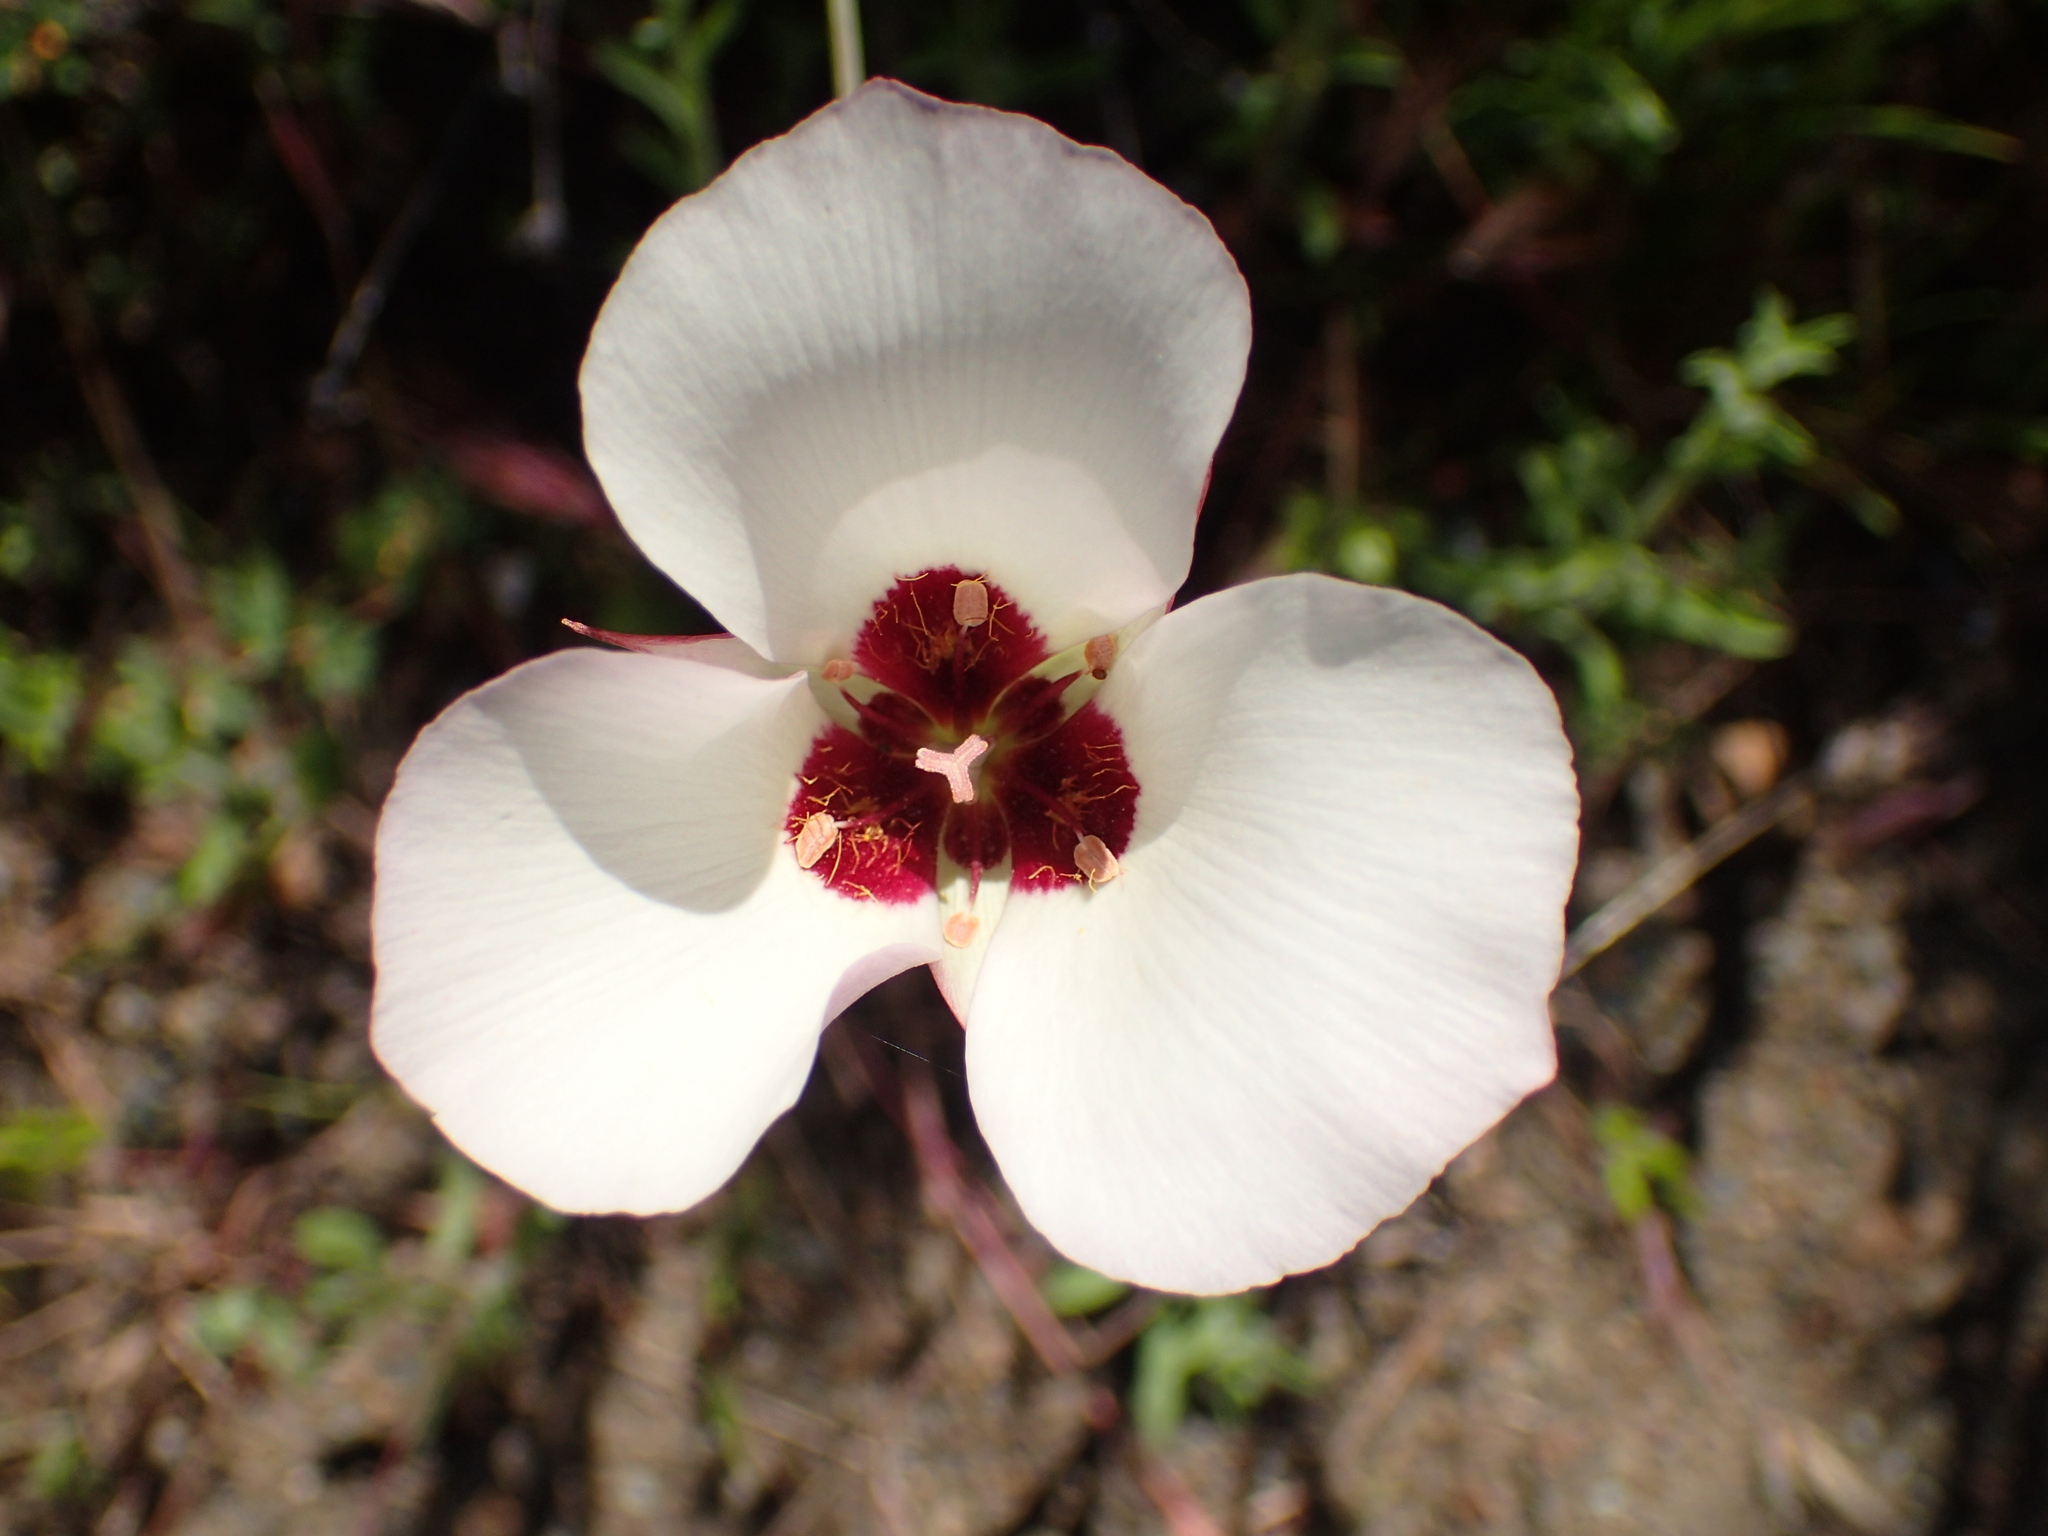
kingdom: Plantae
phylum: Tracheophyta
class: Liliopsida
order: Liliales
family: Liliaceae
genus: Calochortus
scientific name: Calochortus catalinae
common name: Catalina mariposa-lily
